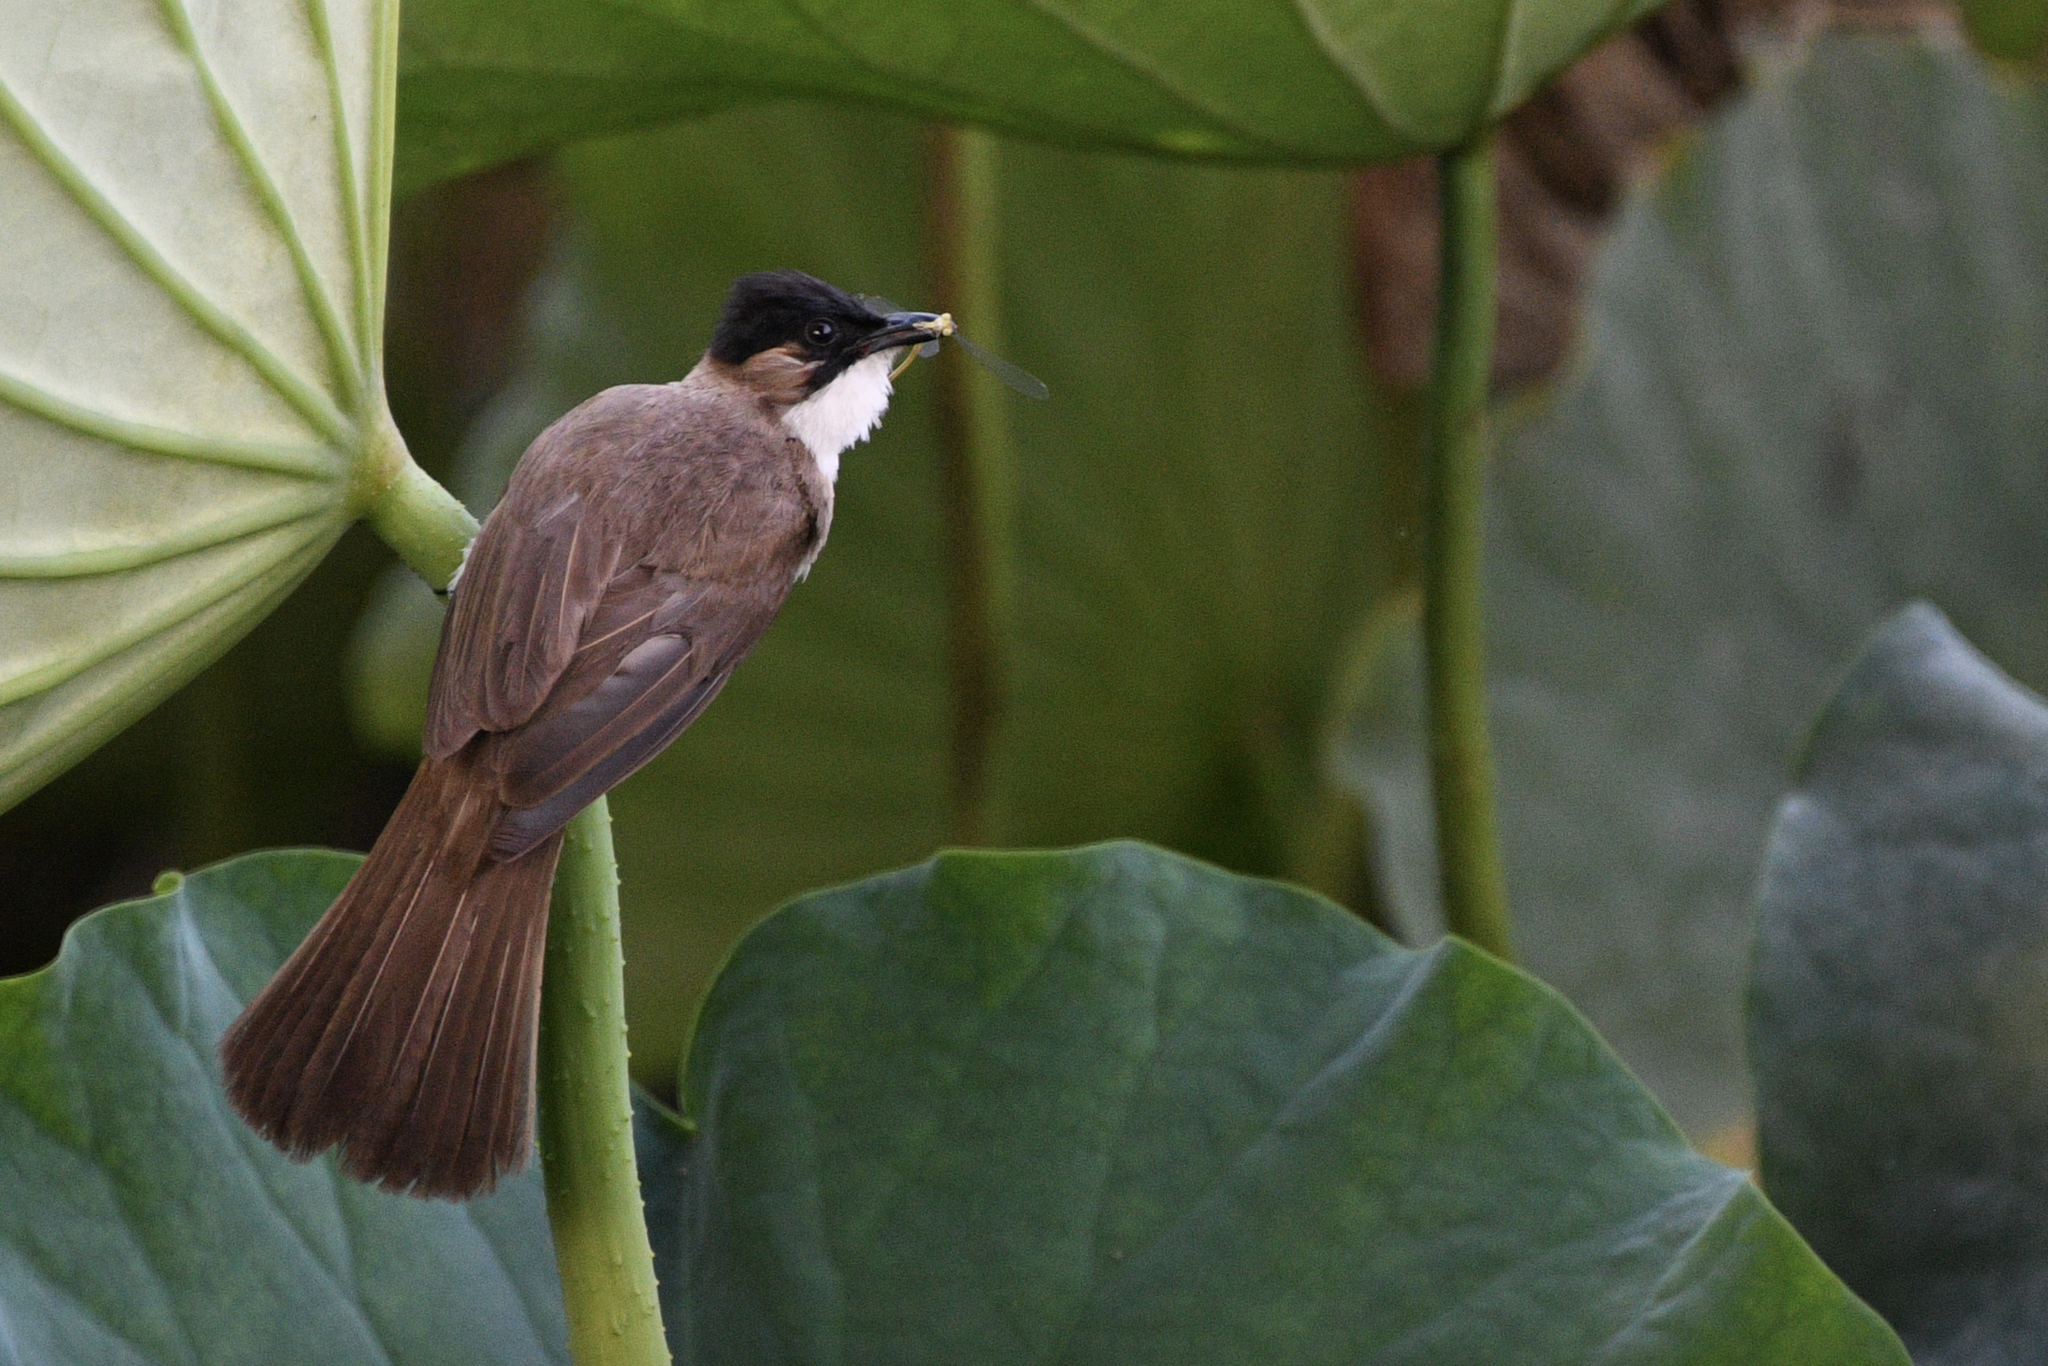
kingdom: Animalia
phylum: Chordata
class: Aves
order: Passeriformes
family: Pycnonotidae
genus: Pycnonotus
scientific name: Pycnonotus xanthorrhous
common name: Brown-breasted bulbul
